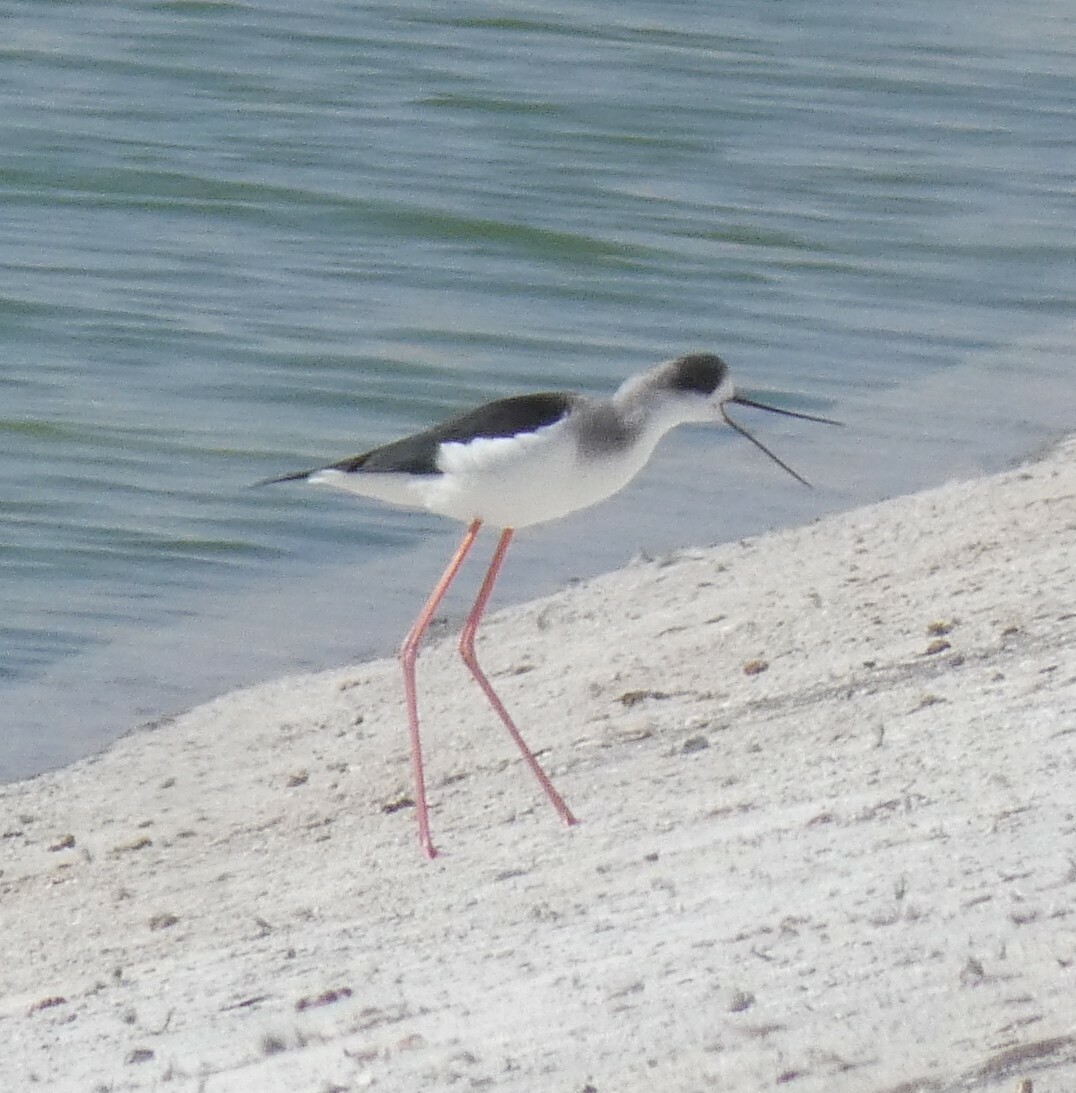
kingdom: Animalia
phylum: Chordata
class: Aves
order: Charadriiformes
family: Recurvirostridae
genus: Himantopus
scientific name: Himantopus himantopus
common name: Black-winged stilt
